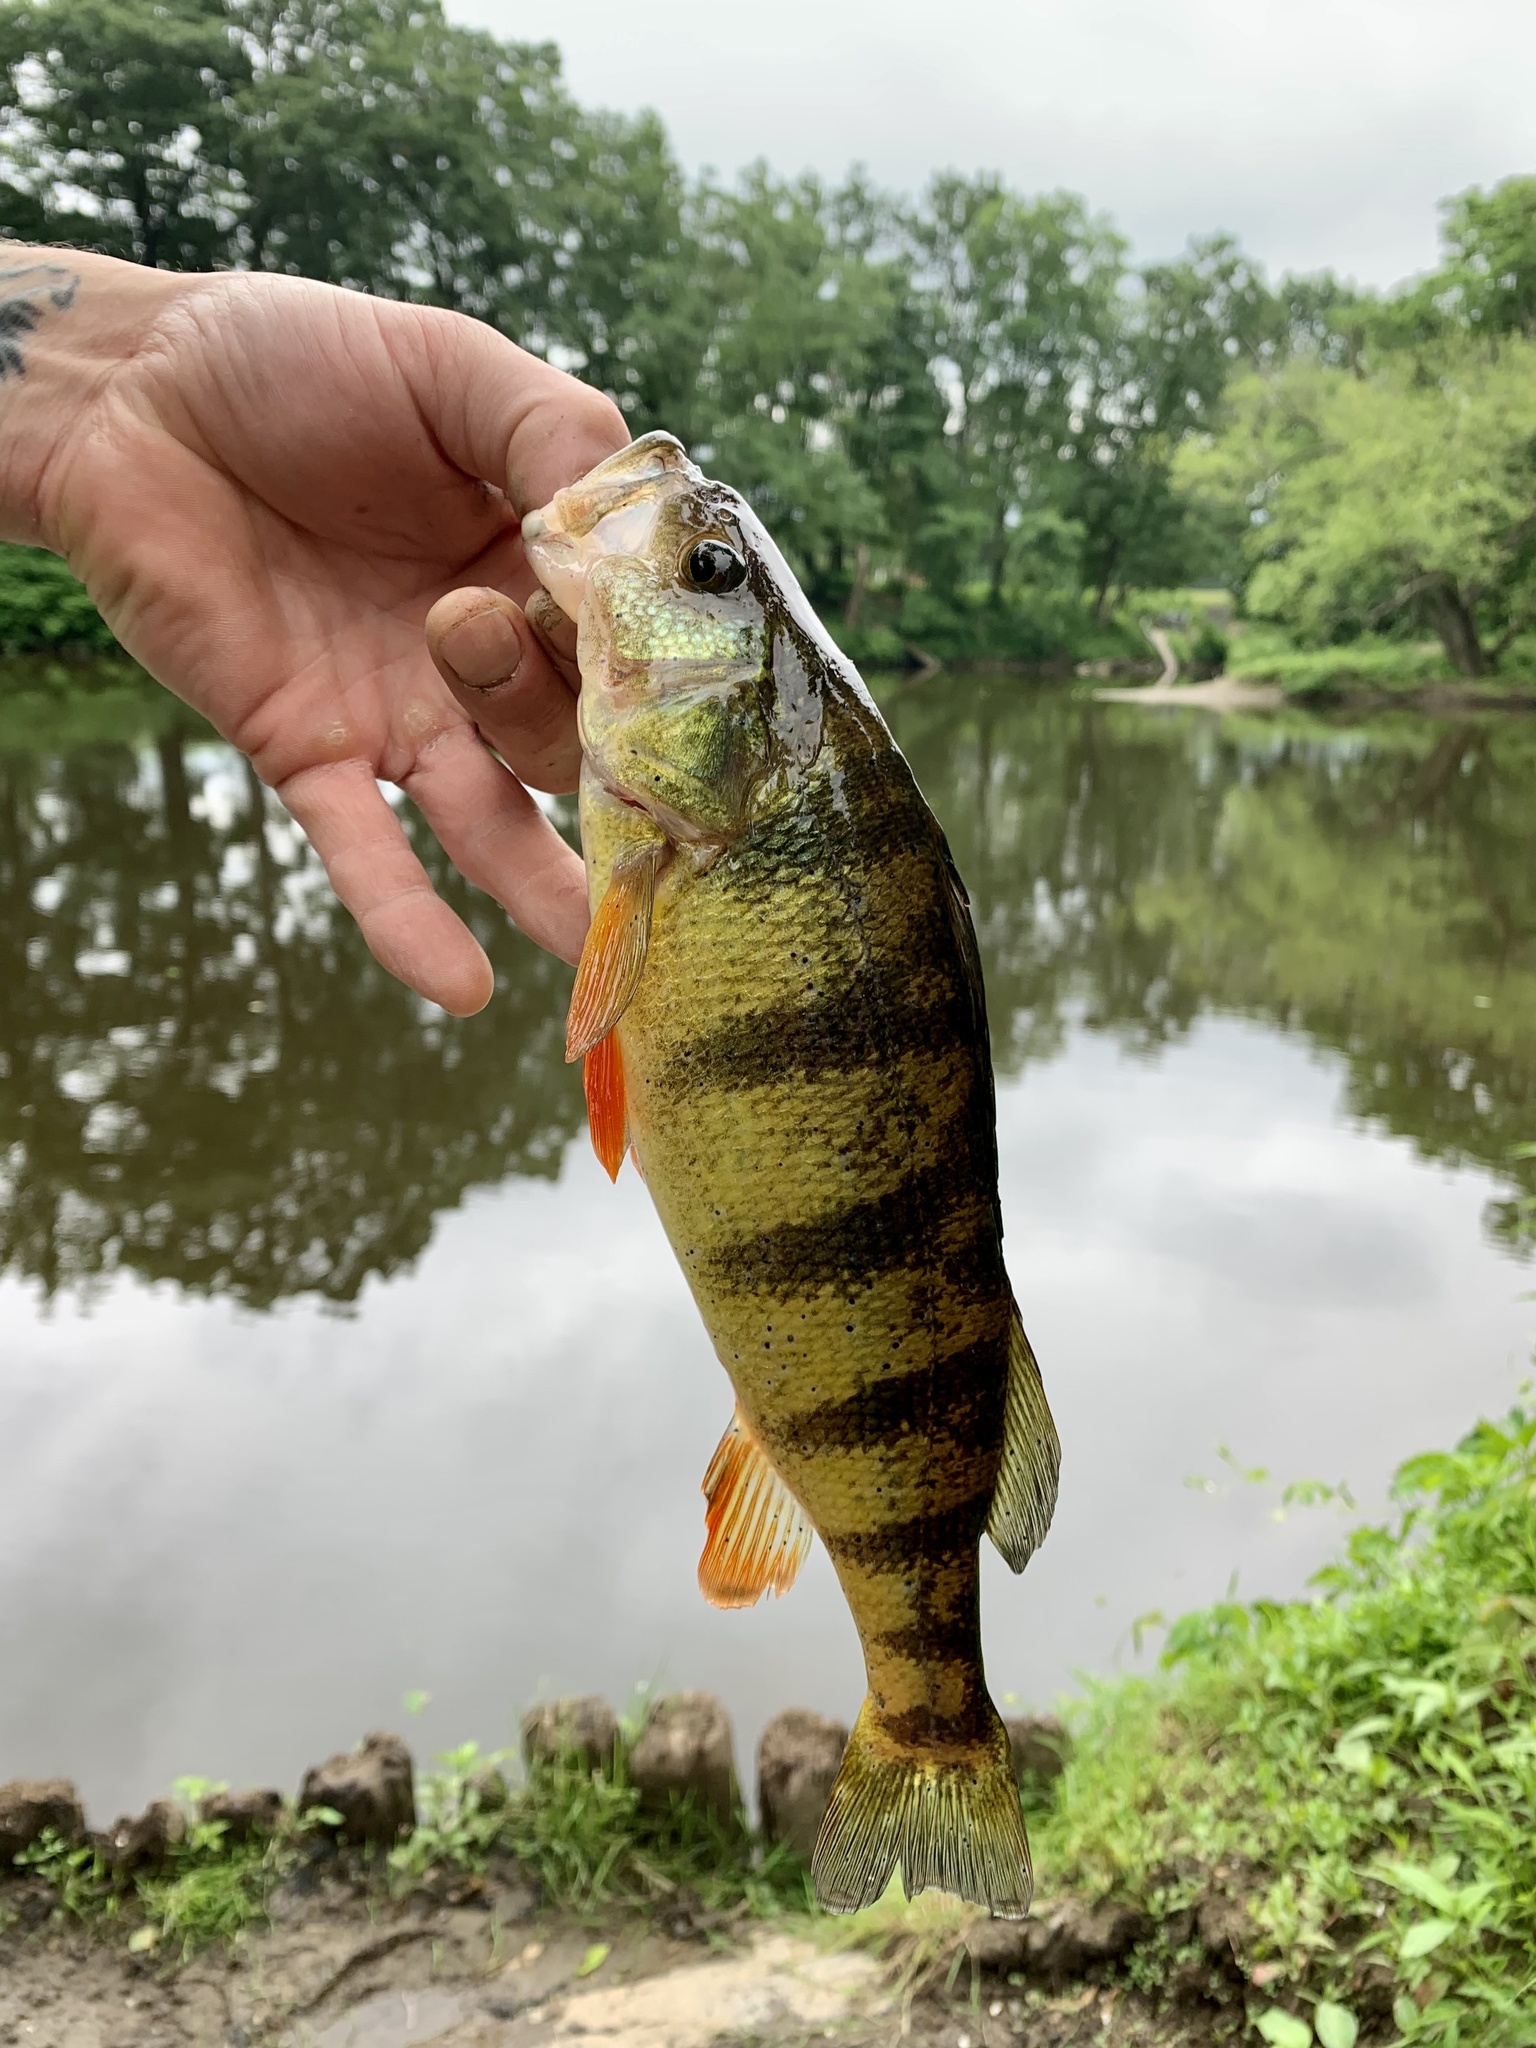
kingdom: Animalia
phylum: Chordata
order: Perciformes
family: Percidae
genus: Perca
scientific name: Perca flavescens
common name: Yellow perch
